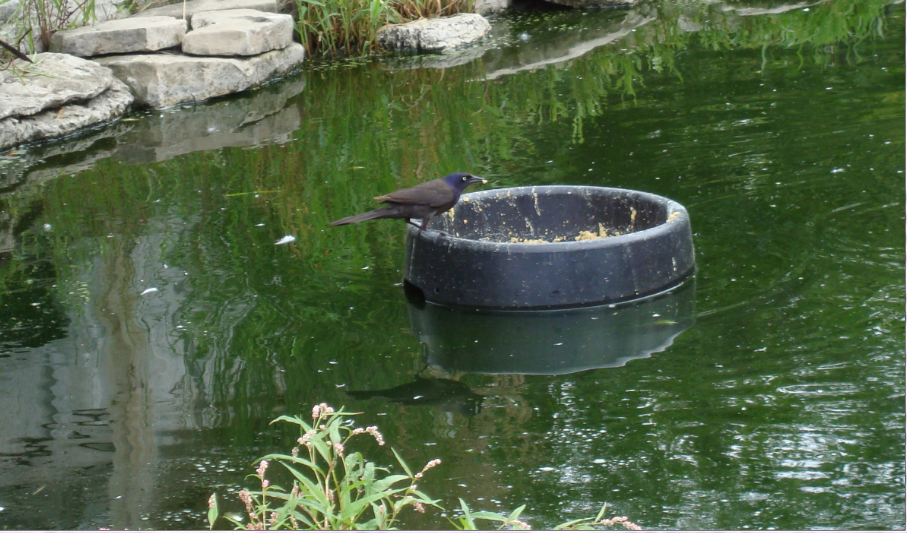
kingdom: Animalia
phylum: Chordata
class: Aves
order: Passeriformes
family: Icteridae
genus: Quiscalus
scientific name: Quiscalus quiscula
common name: Common grackle
